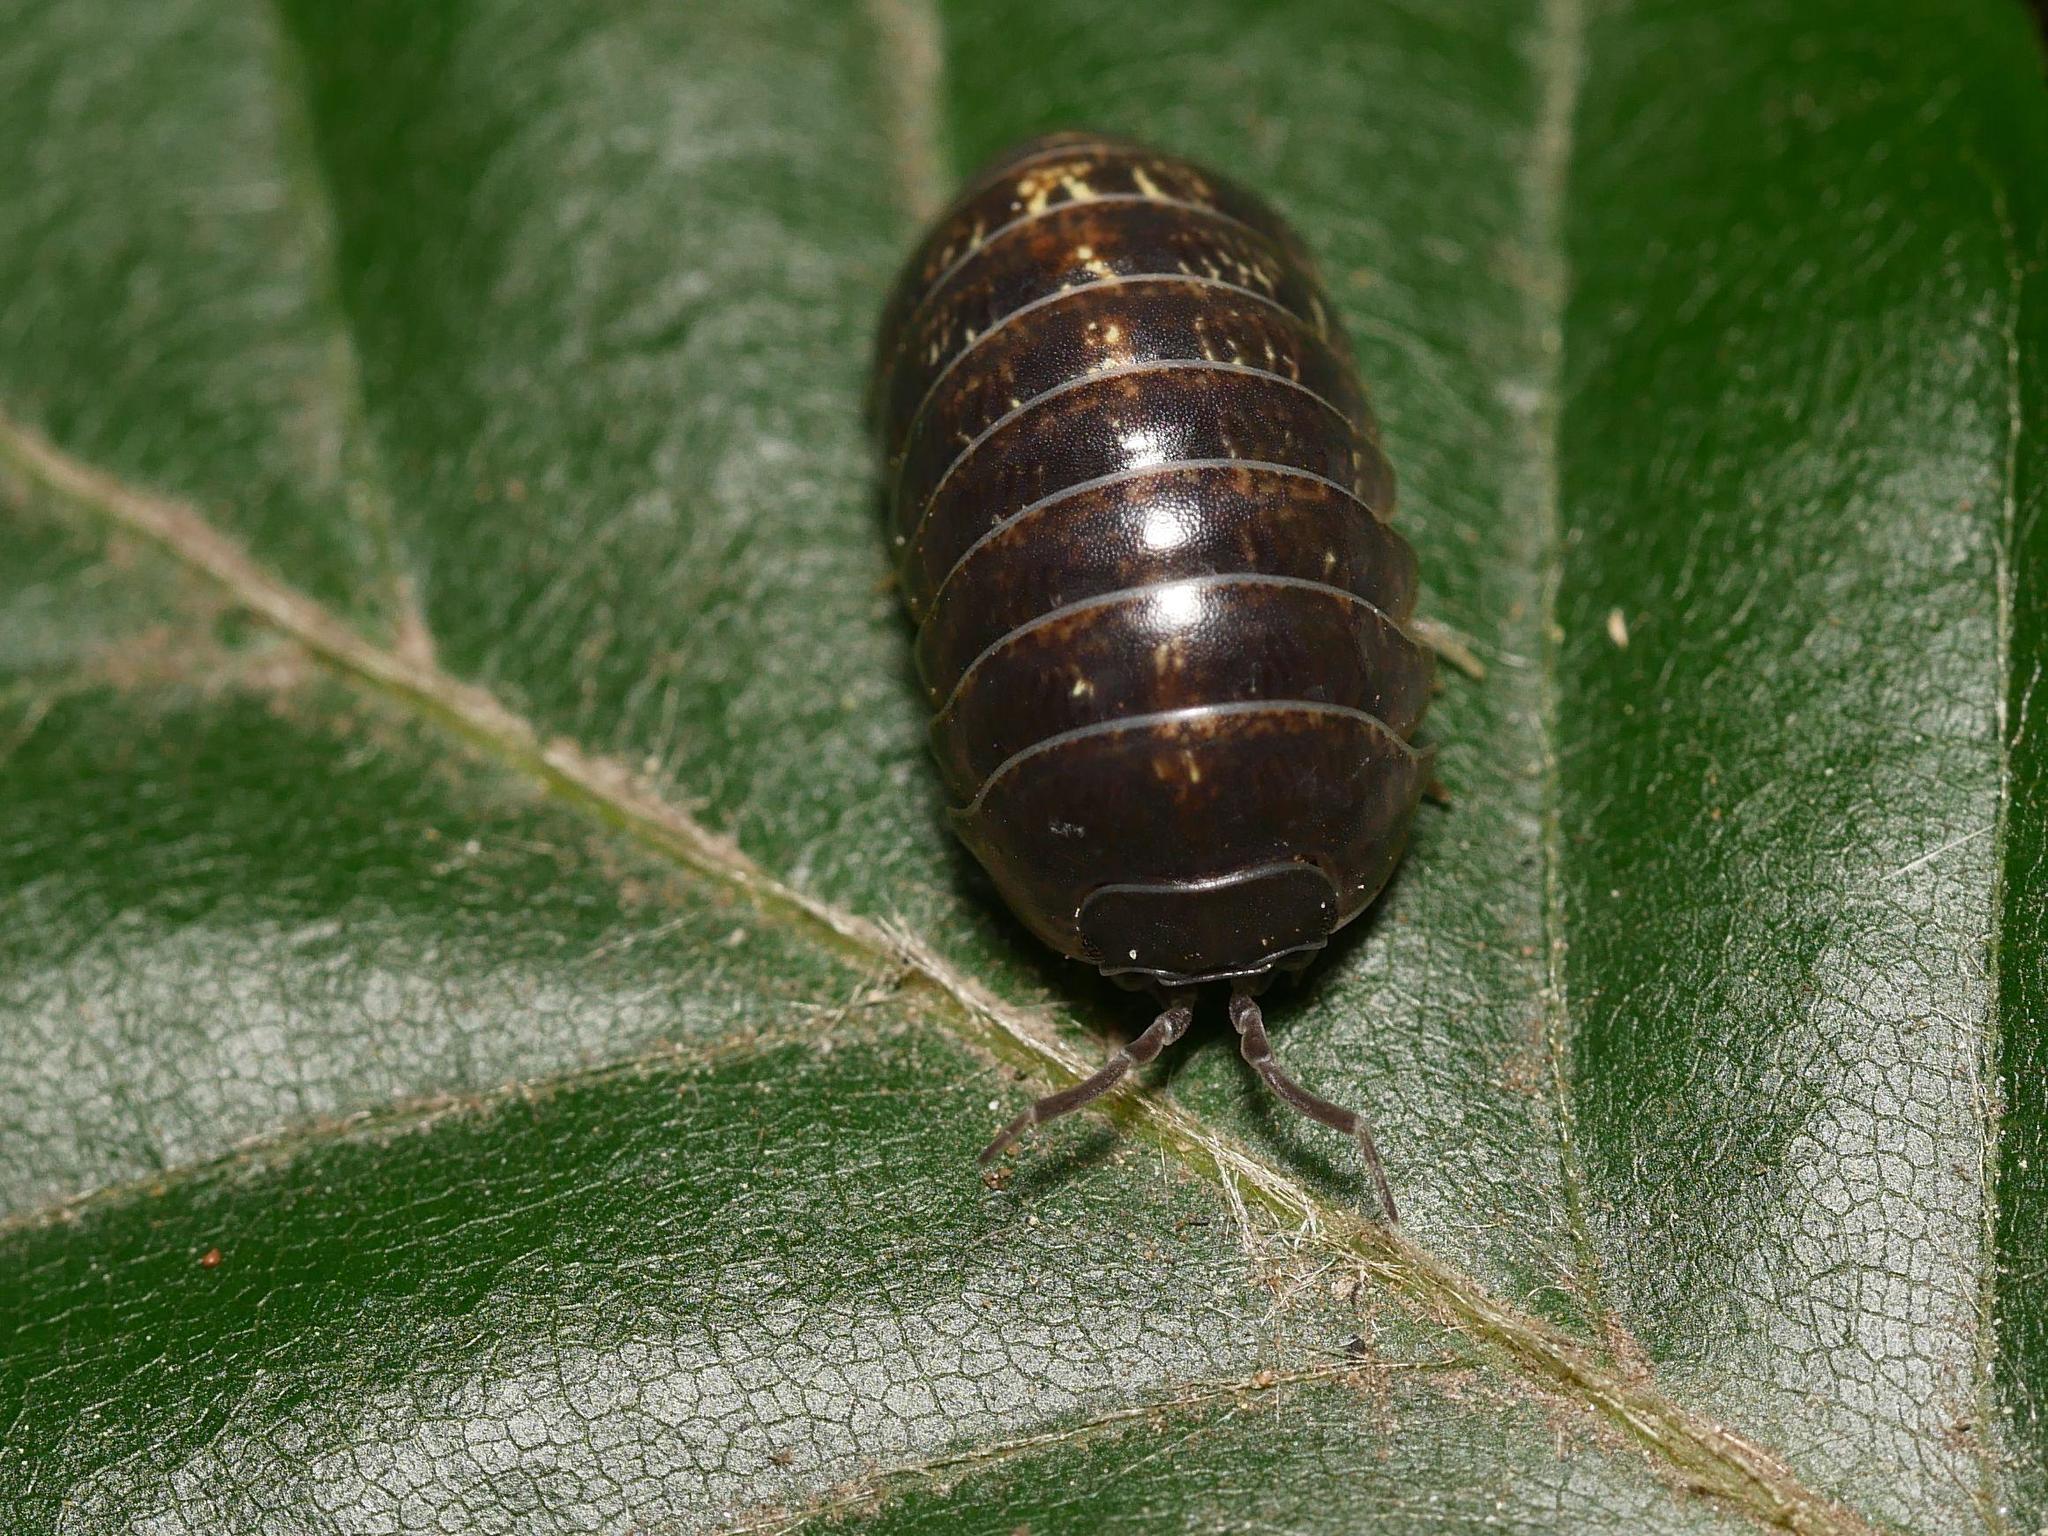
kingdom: Animalia
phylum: Arthropoda
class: Malacostraca
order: Isopoda
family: Armadillidiidae
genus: Armadillidium
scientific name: Armadillidium vulgare
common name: Common pill woodlouse
